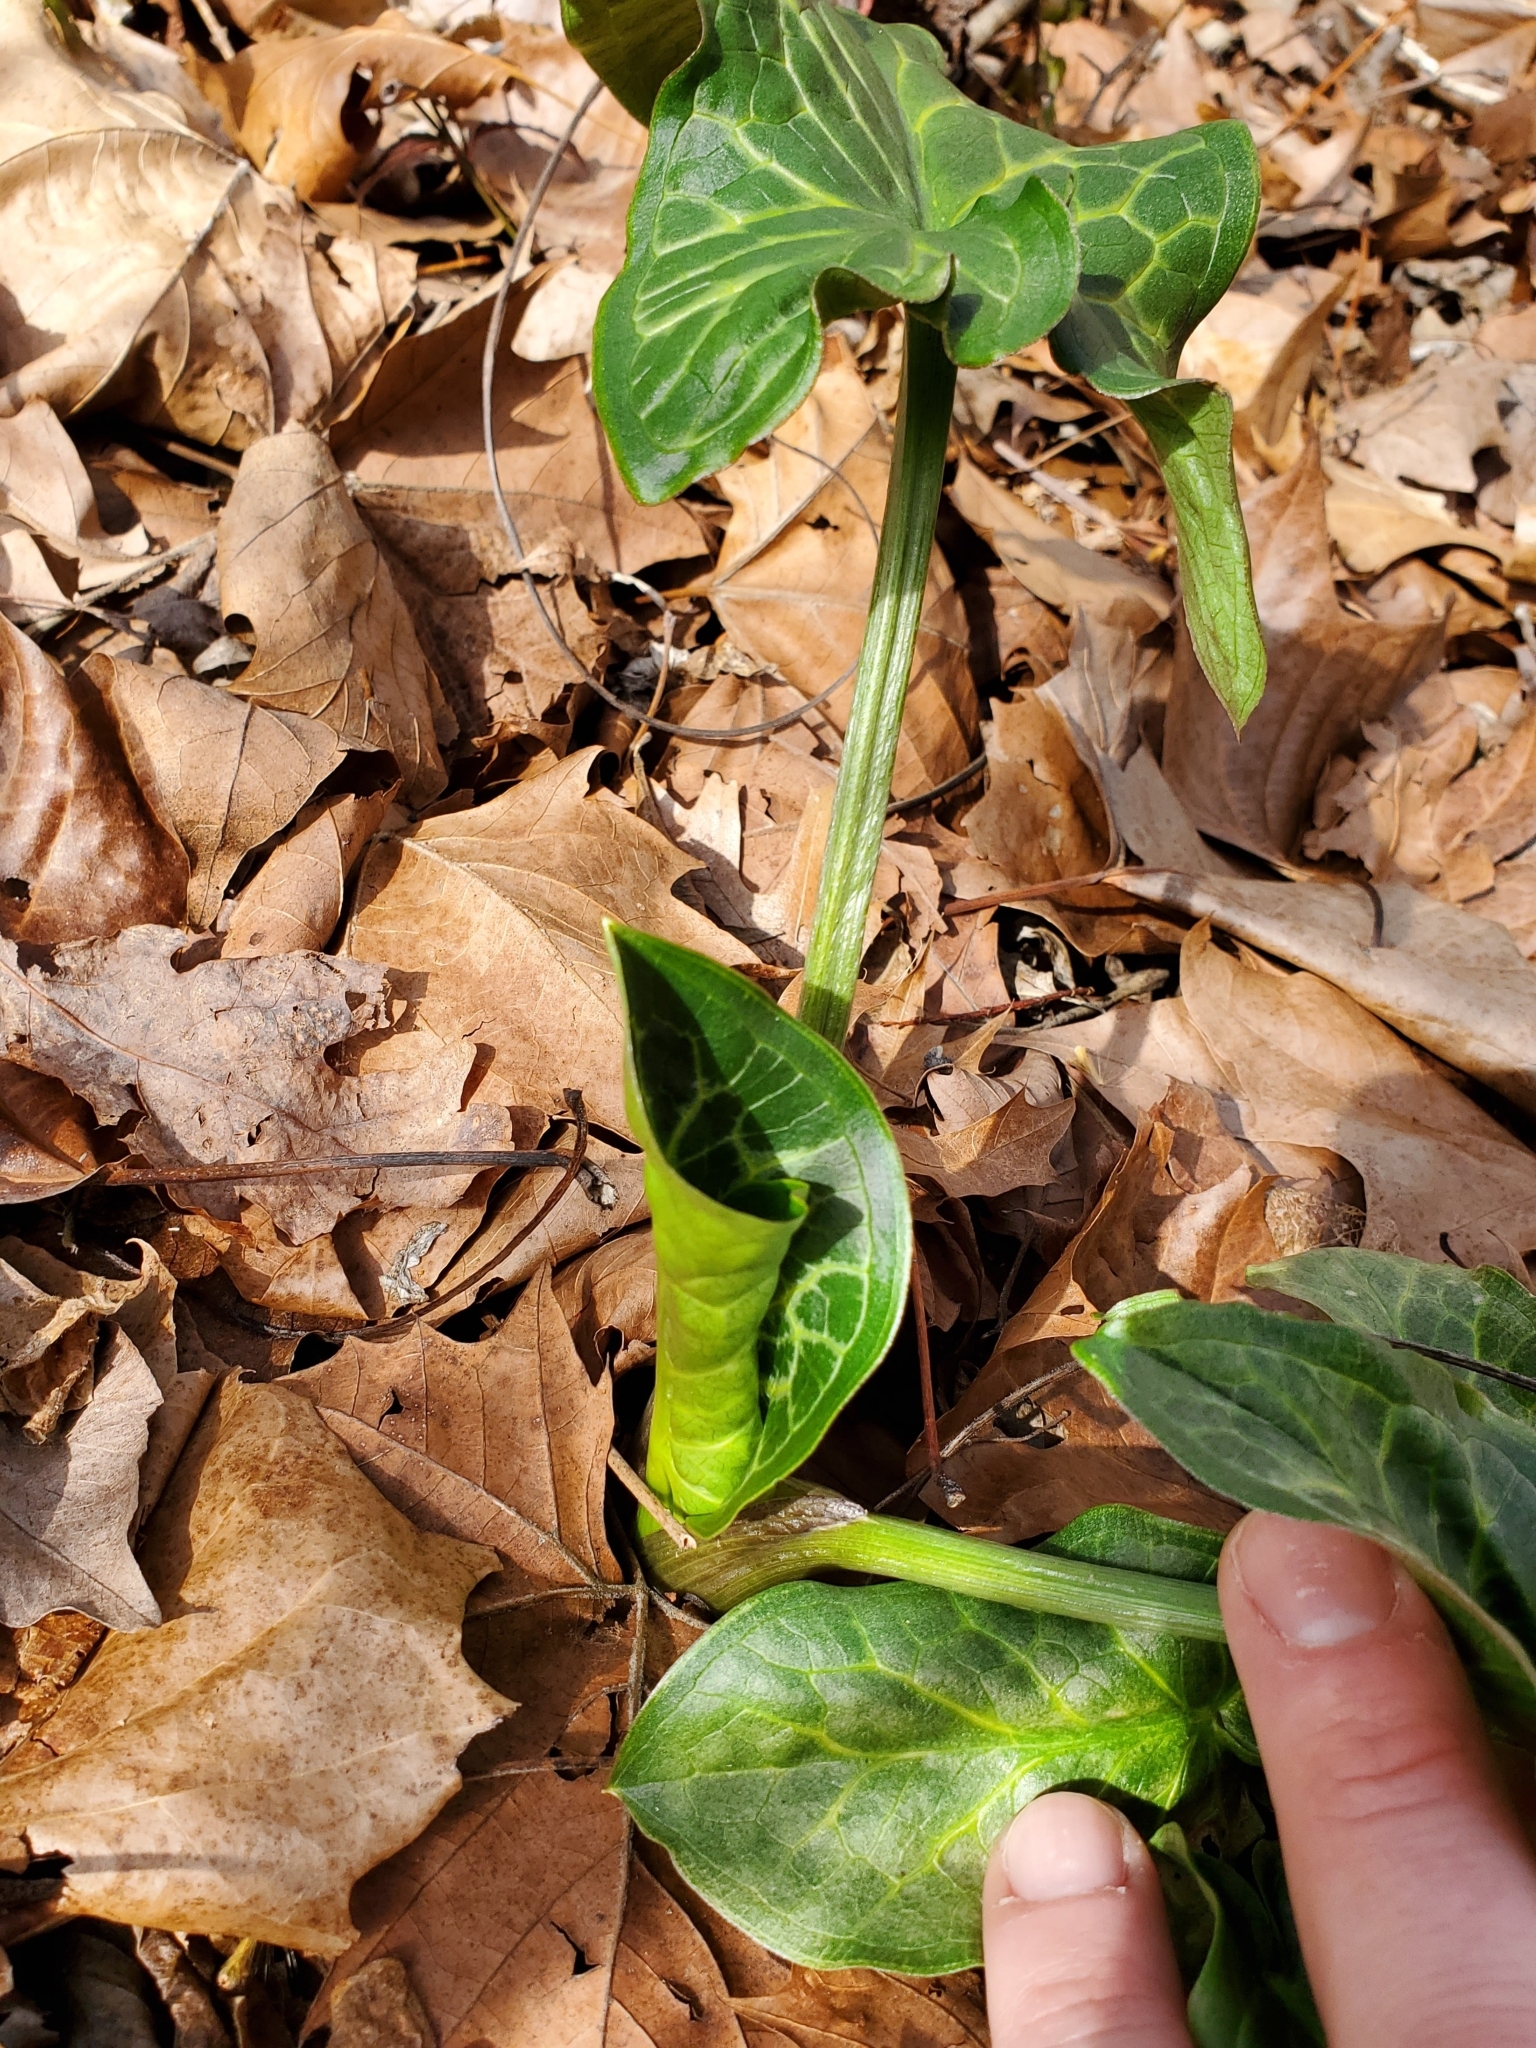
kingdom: Plantae
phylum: Tracheophyta
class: Liliopsida
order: Alismatales
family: Araceae
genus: Arum
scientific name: Arum italicum
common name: Italian lords-and-ladies
